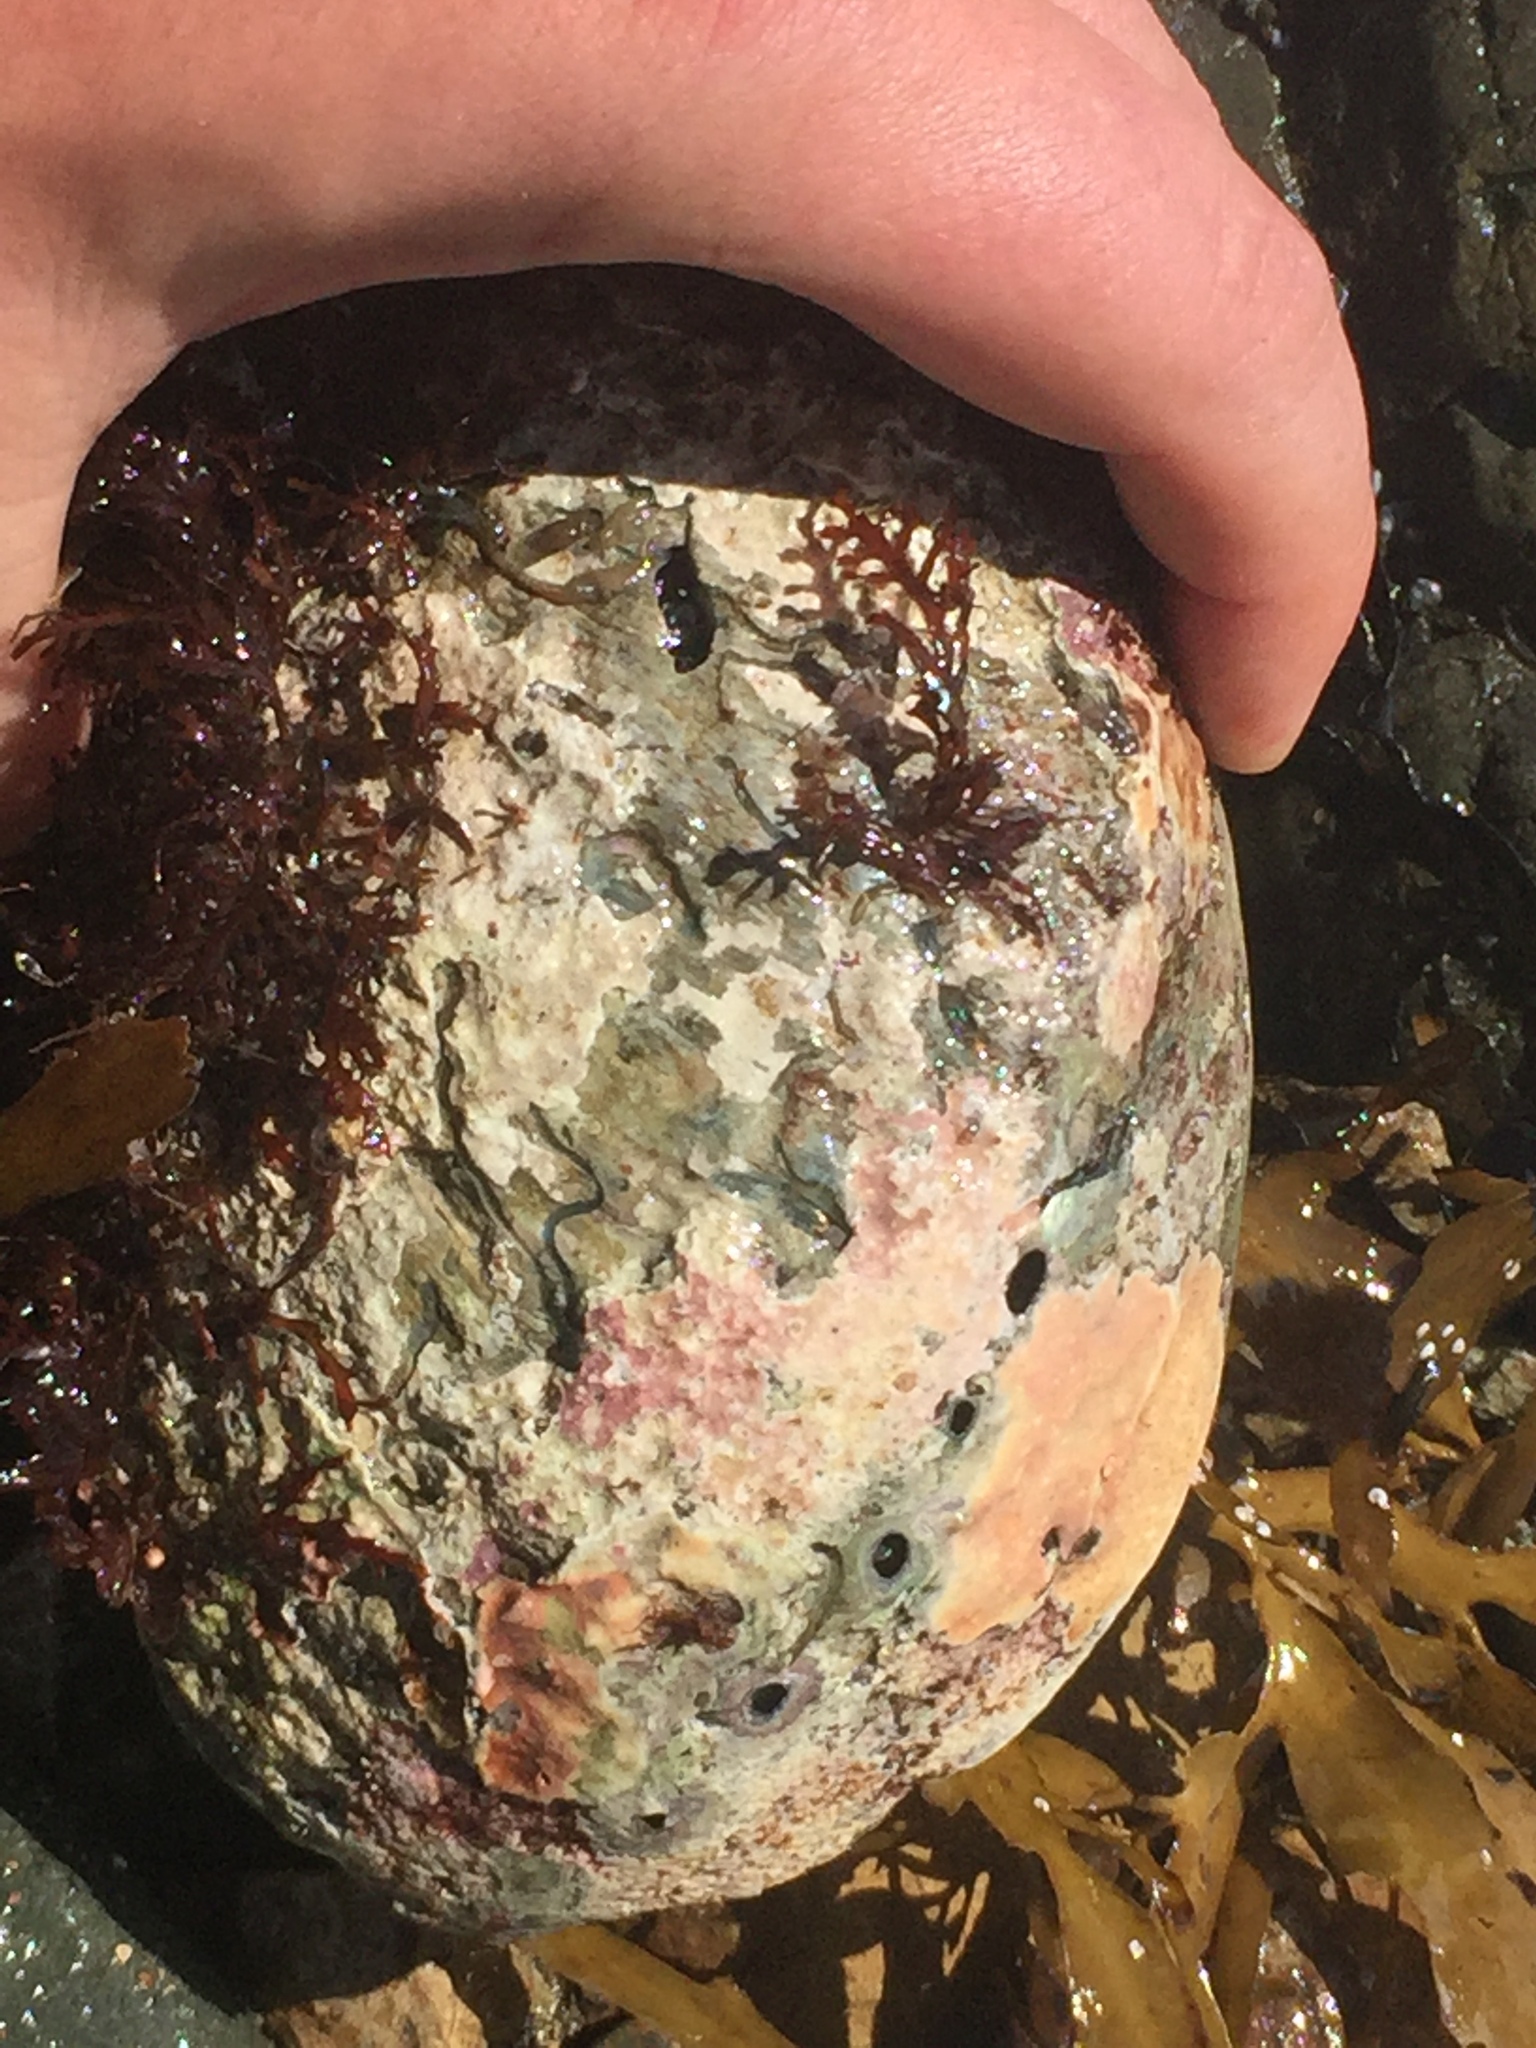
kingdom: Animalia
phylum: Mollusca
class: Gastropoda
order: Lepetellida
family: Haliotidae
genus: Haliotis
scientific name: Haliotis iris
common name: Abalone
